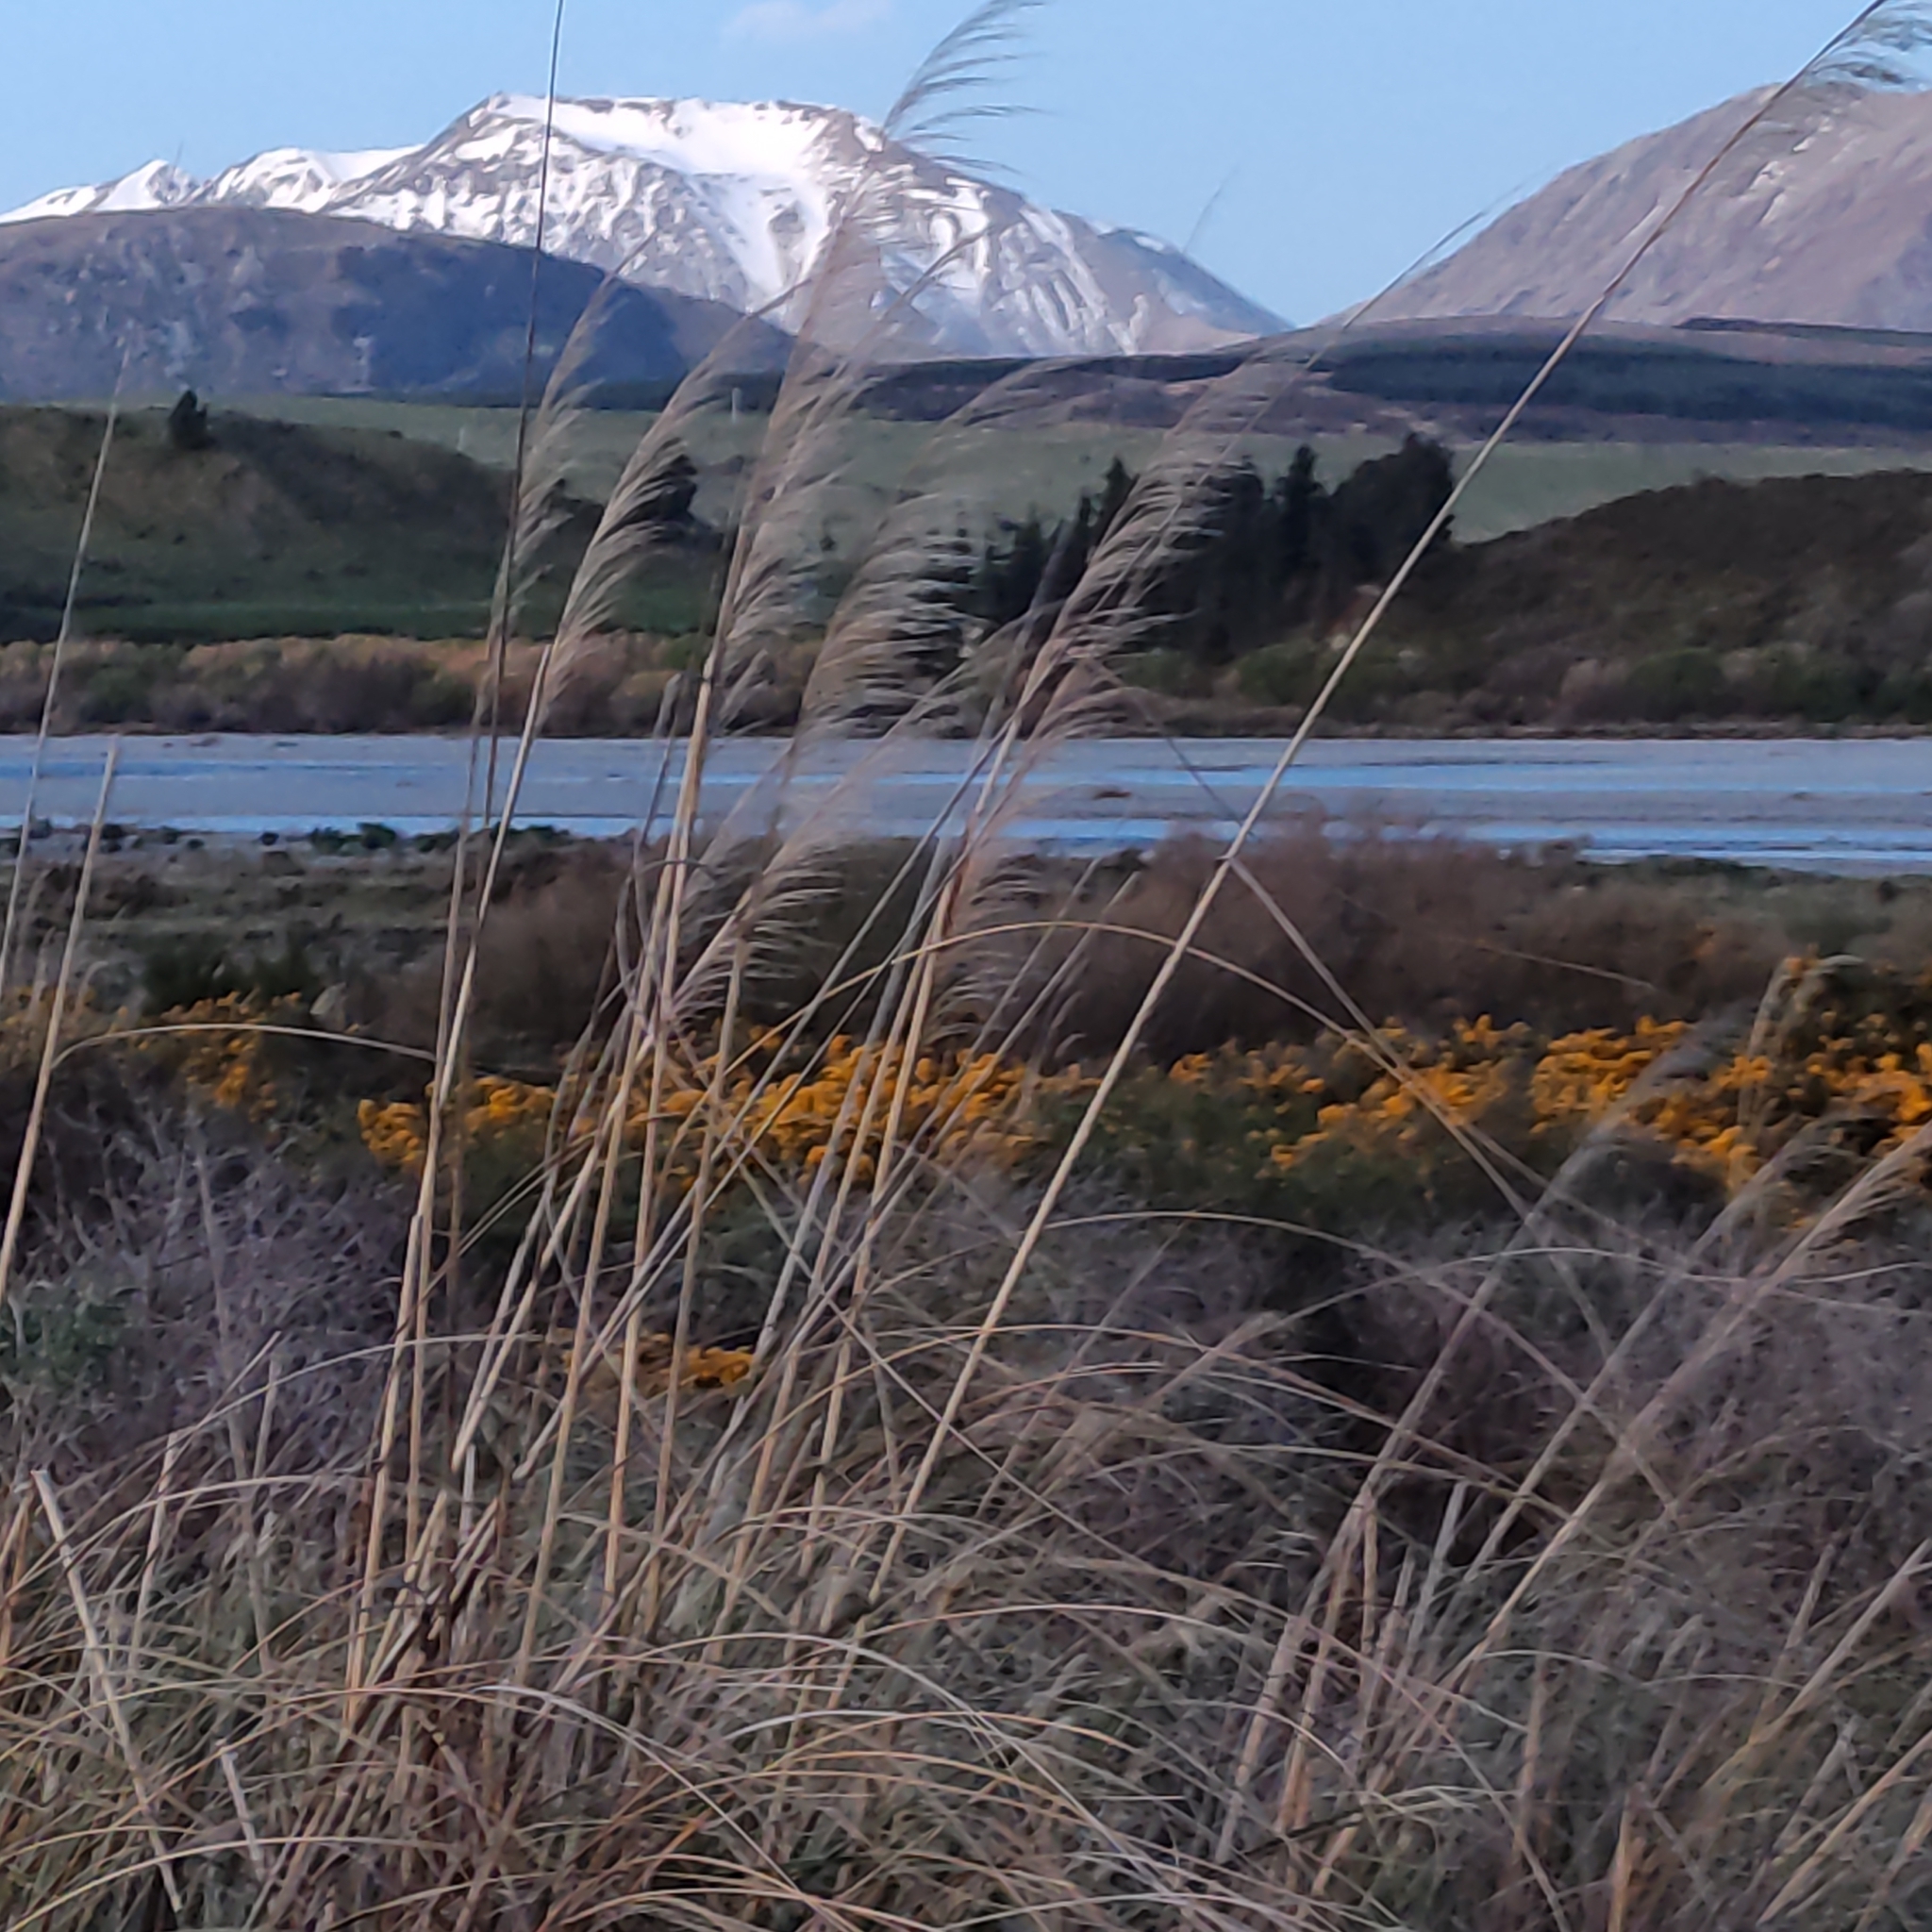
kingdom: Plantae
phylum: Tracheophyta
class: Liliopsida
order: Poales
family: Poaceae
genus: Austroderia
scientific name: Austroderia richardii
